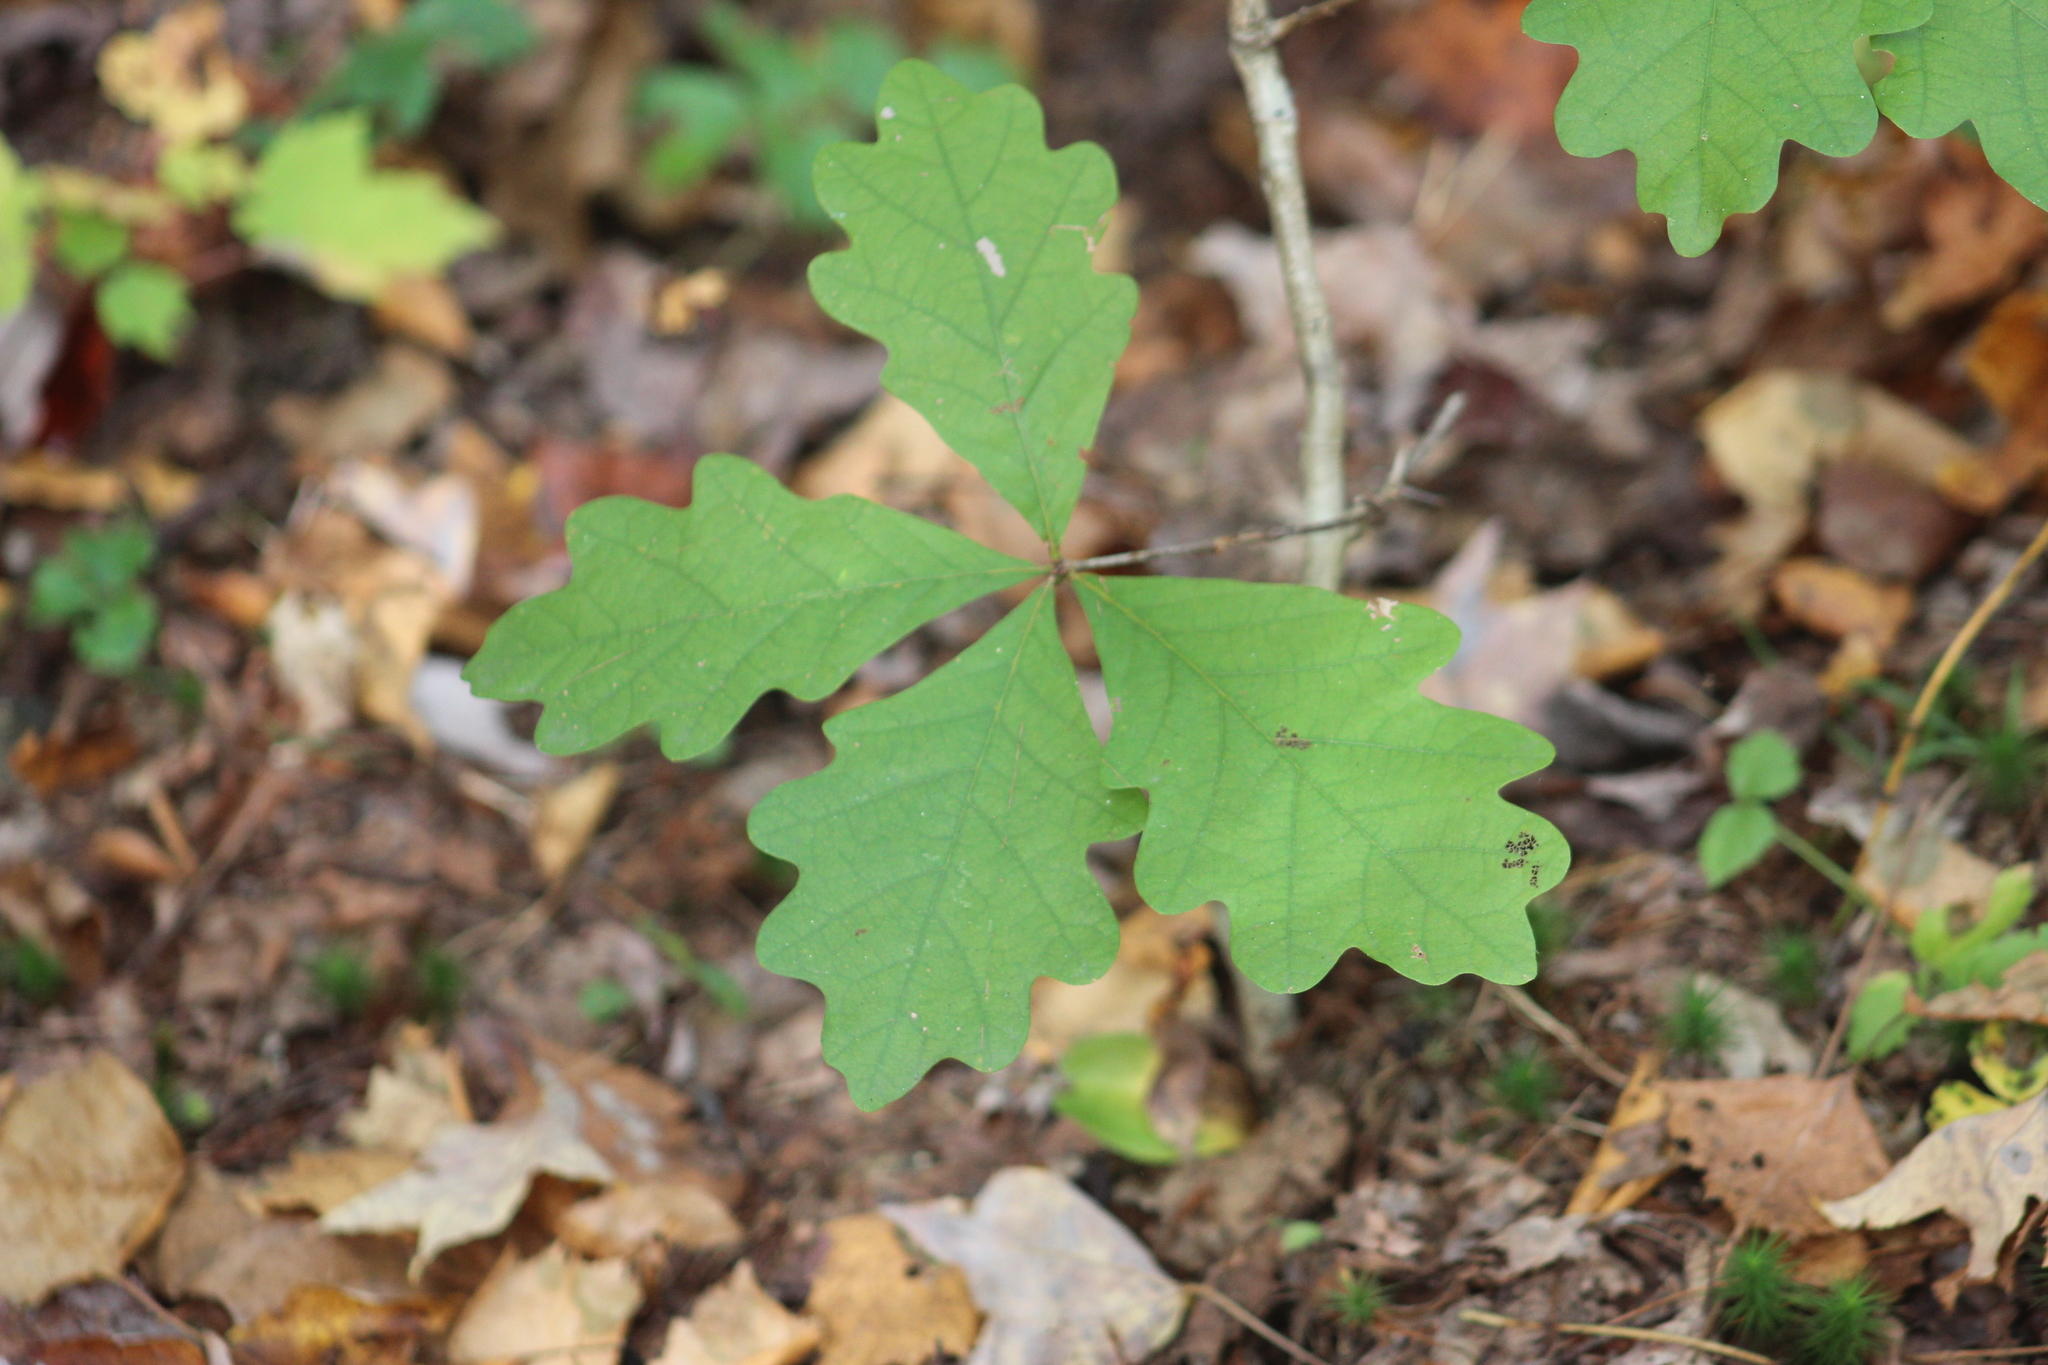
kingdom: Plantae
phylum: Tracheophyta
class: Magnoliopsida
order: Fagales
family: Fagaceae
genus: Quercus
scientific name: Quercus alba
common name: White oak
